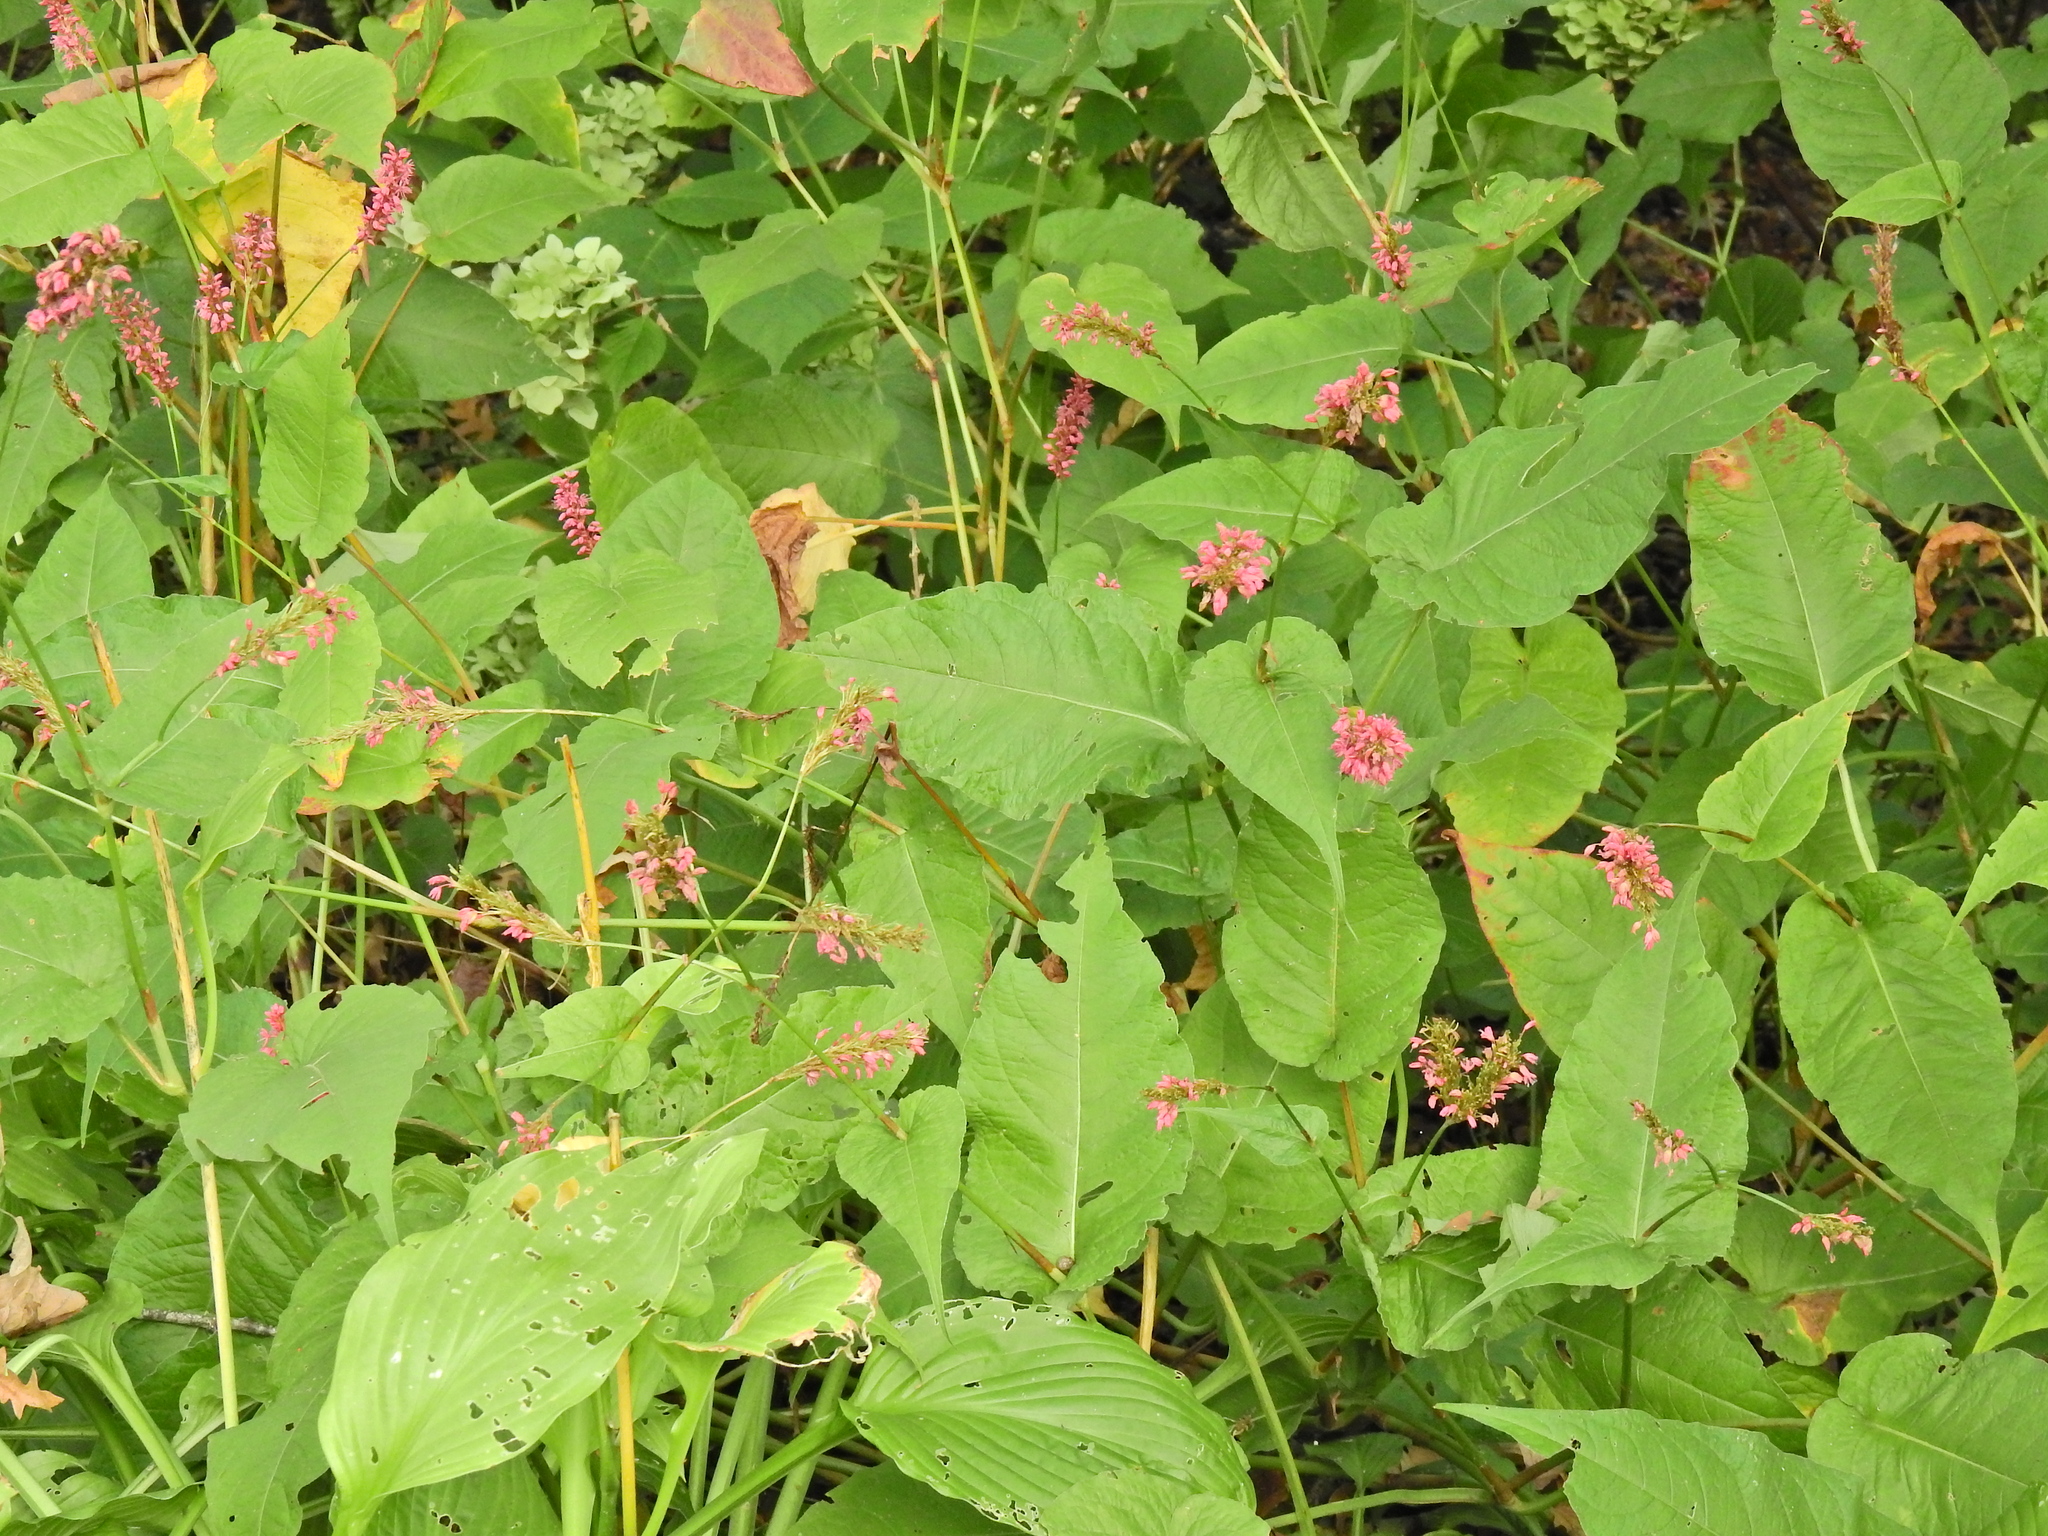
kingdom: Plantae
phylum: Tracheophyta
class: Magnoliopsida
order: Caryophyllales
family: Polygonaceae
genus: Bistorta
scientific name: Bistorta amplexicaulis
